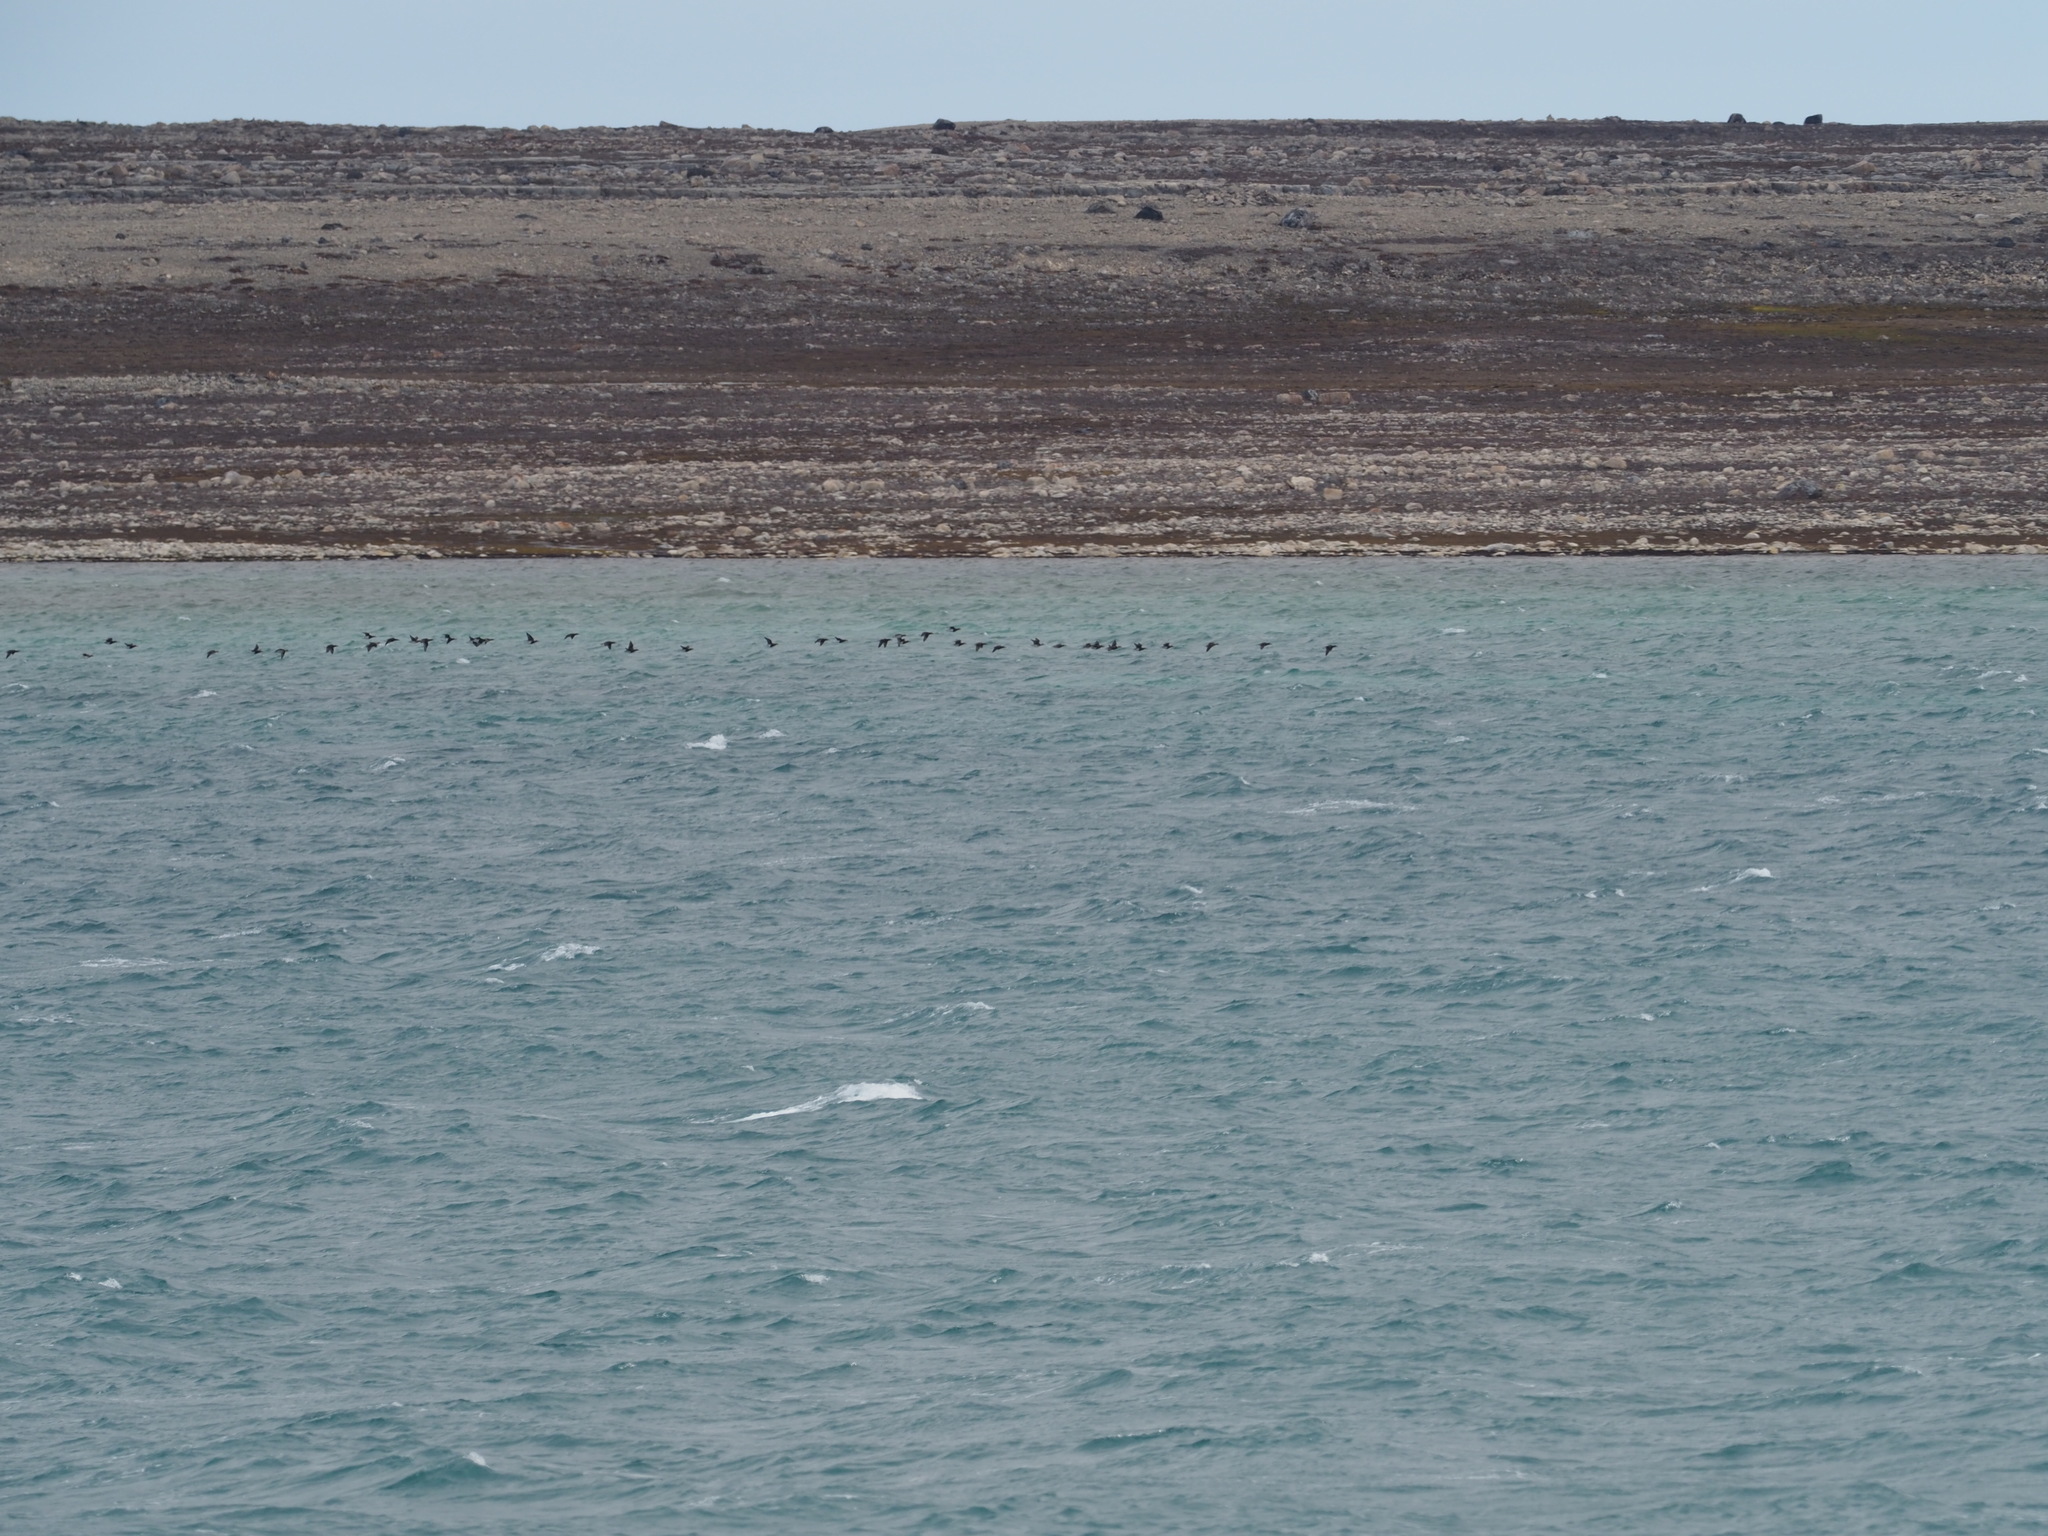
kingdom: Animalia
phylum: Chordata
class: Aves
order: Anseriformes
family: Anatidae
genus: Branta
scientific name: Branta bernicla
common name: Brant goose
